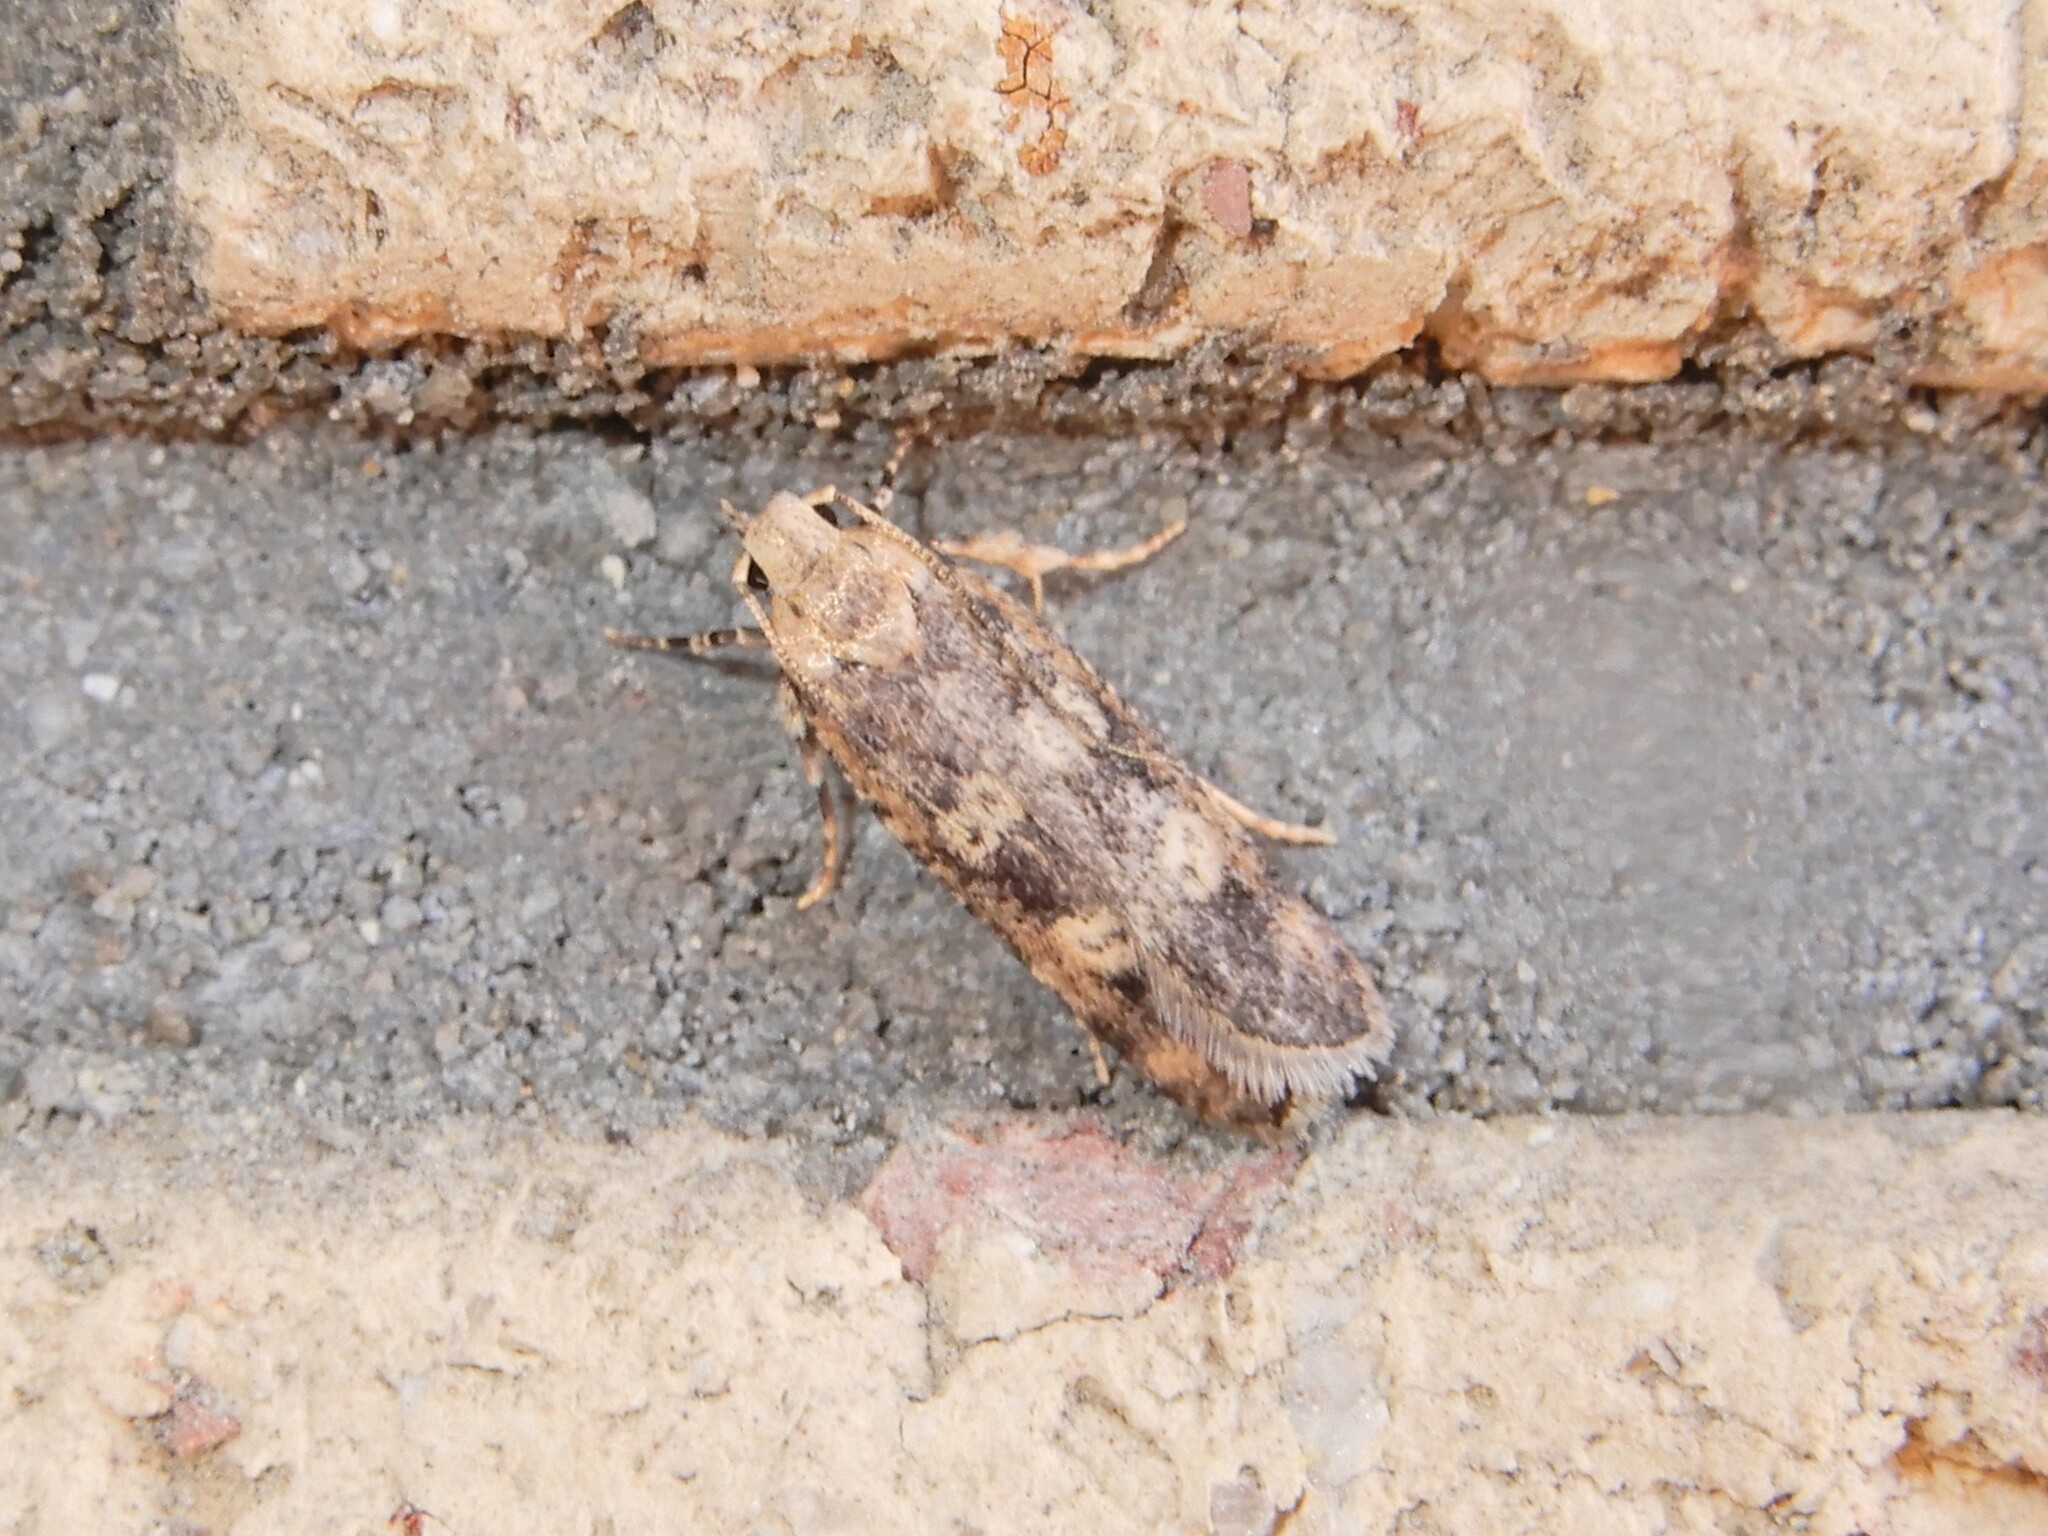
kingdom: Animalia
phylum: Arthropoda
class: Insecta
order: Lepidoptera
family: Gelechiidae
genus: Anisoplaca
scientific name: Anisoplaca cosmia
